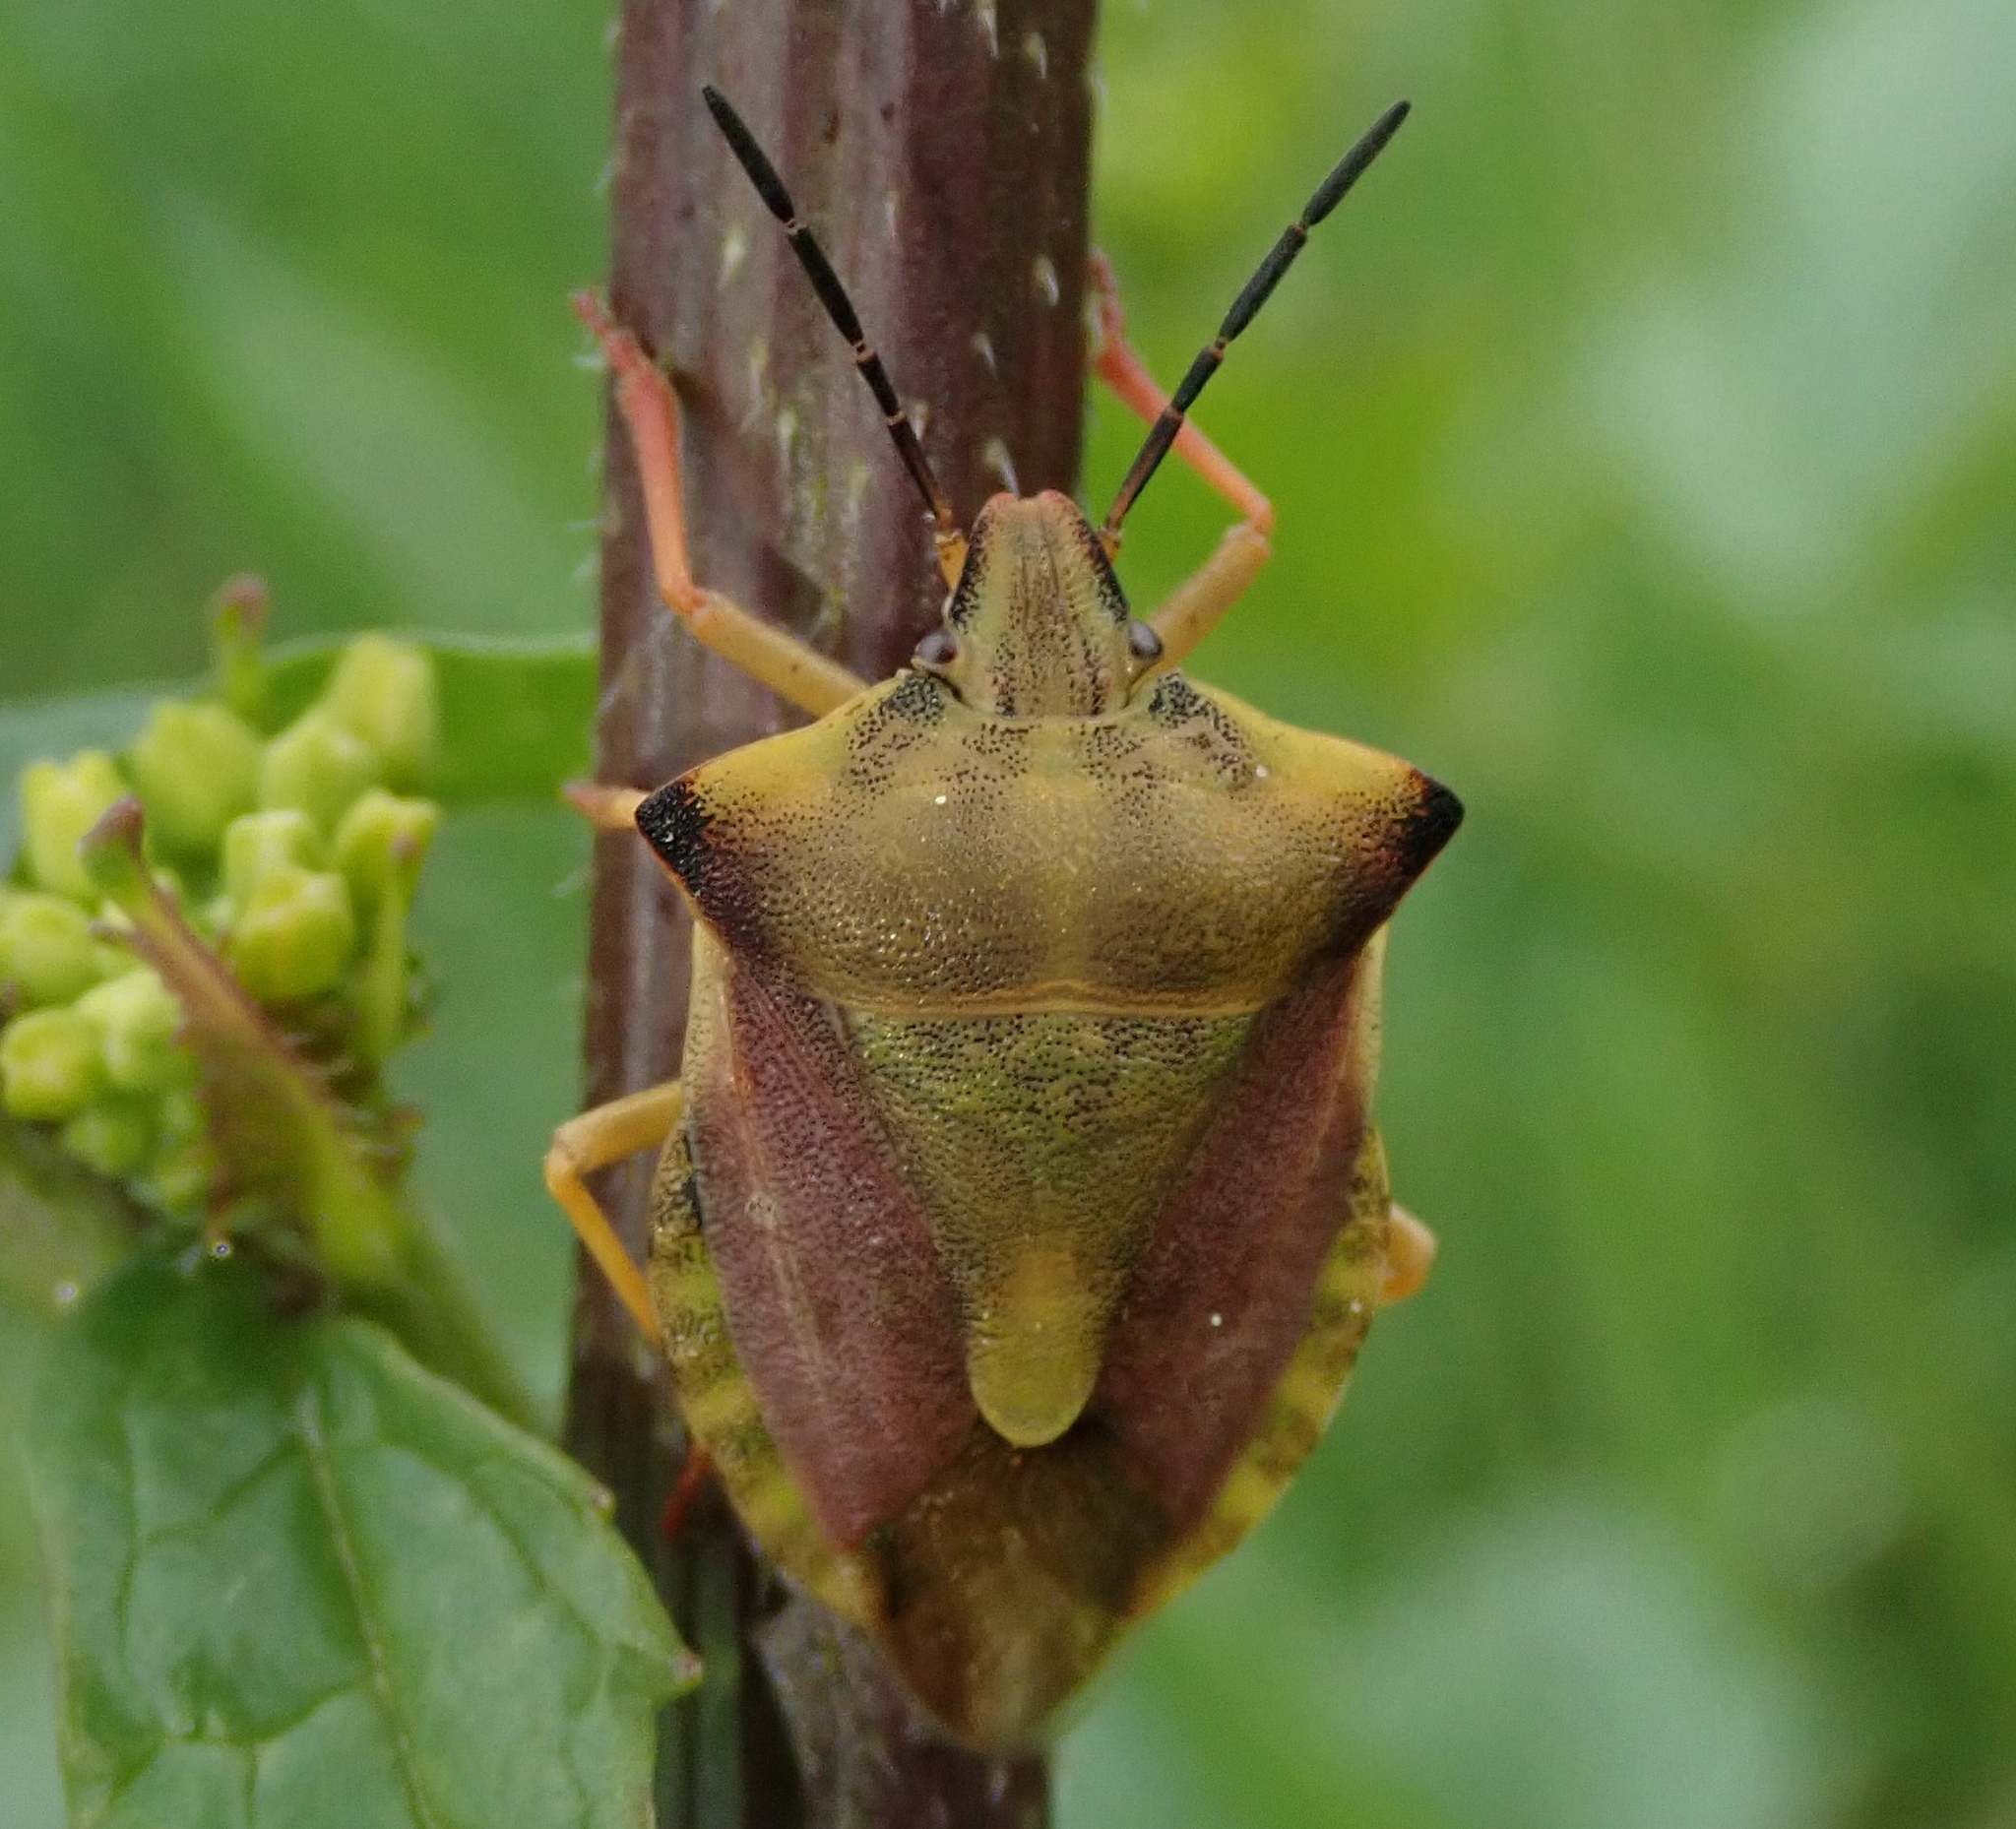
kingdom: Animalia
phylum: Arthropoda
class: Insecta
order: Hemiptera
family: Pentatomidae
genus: Carpocoris
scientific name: Carpocoris fuscispinus
